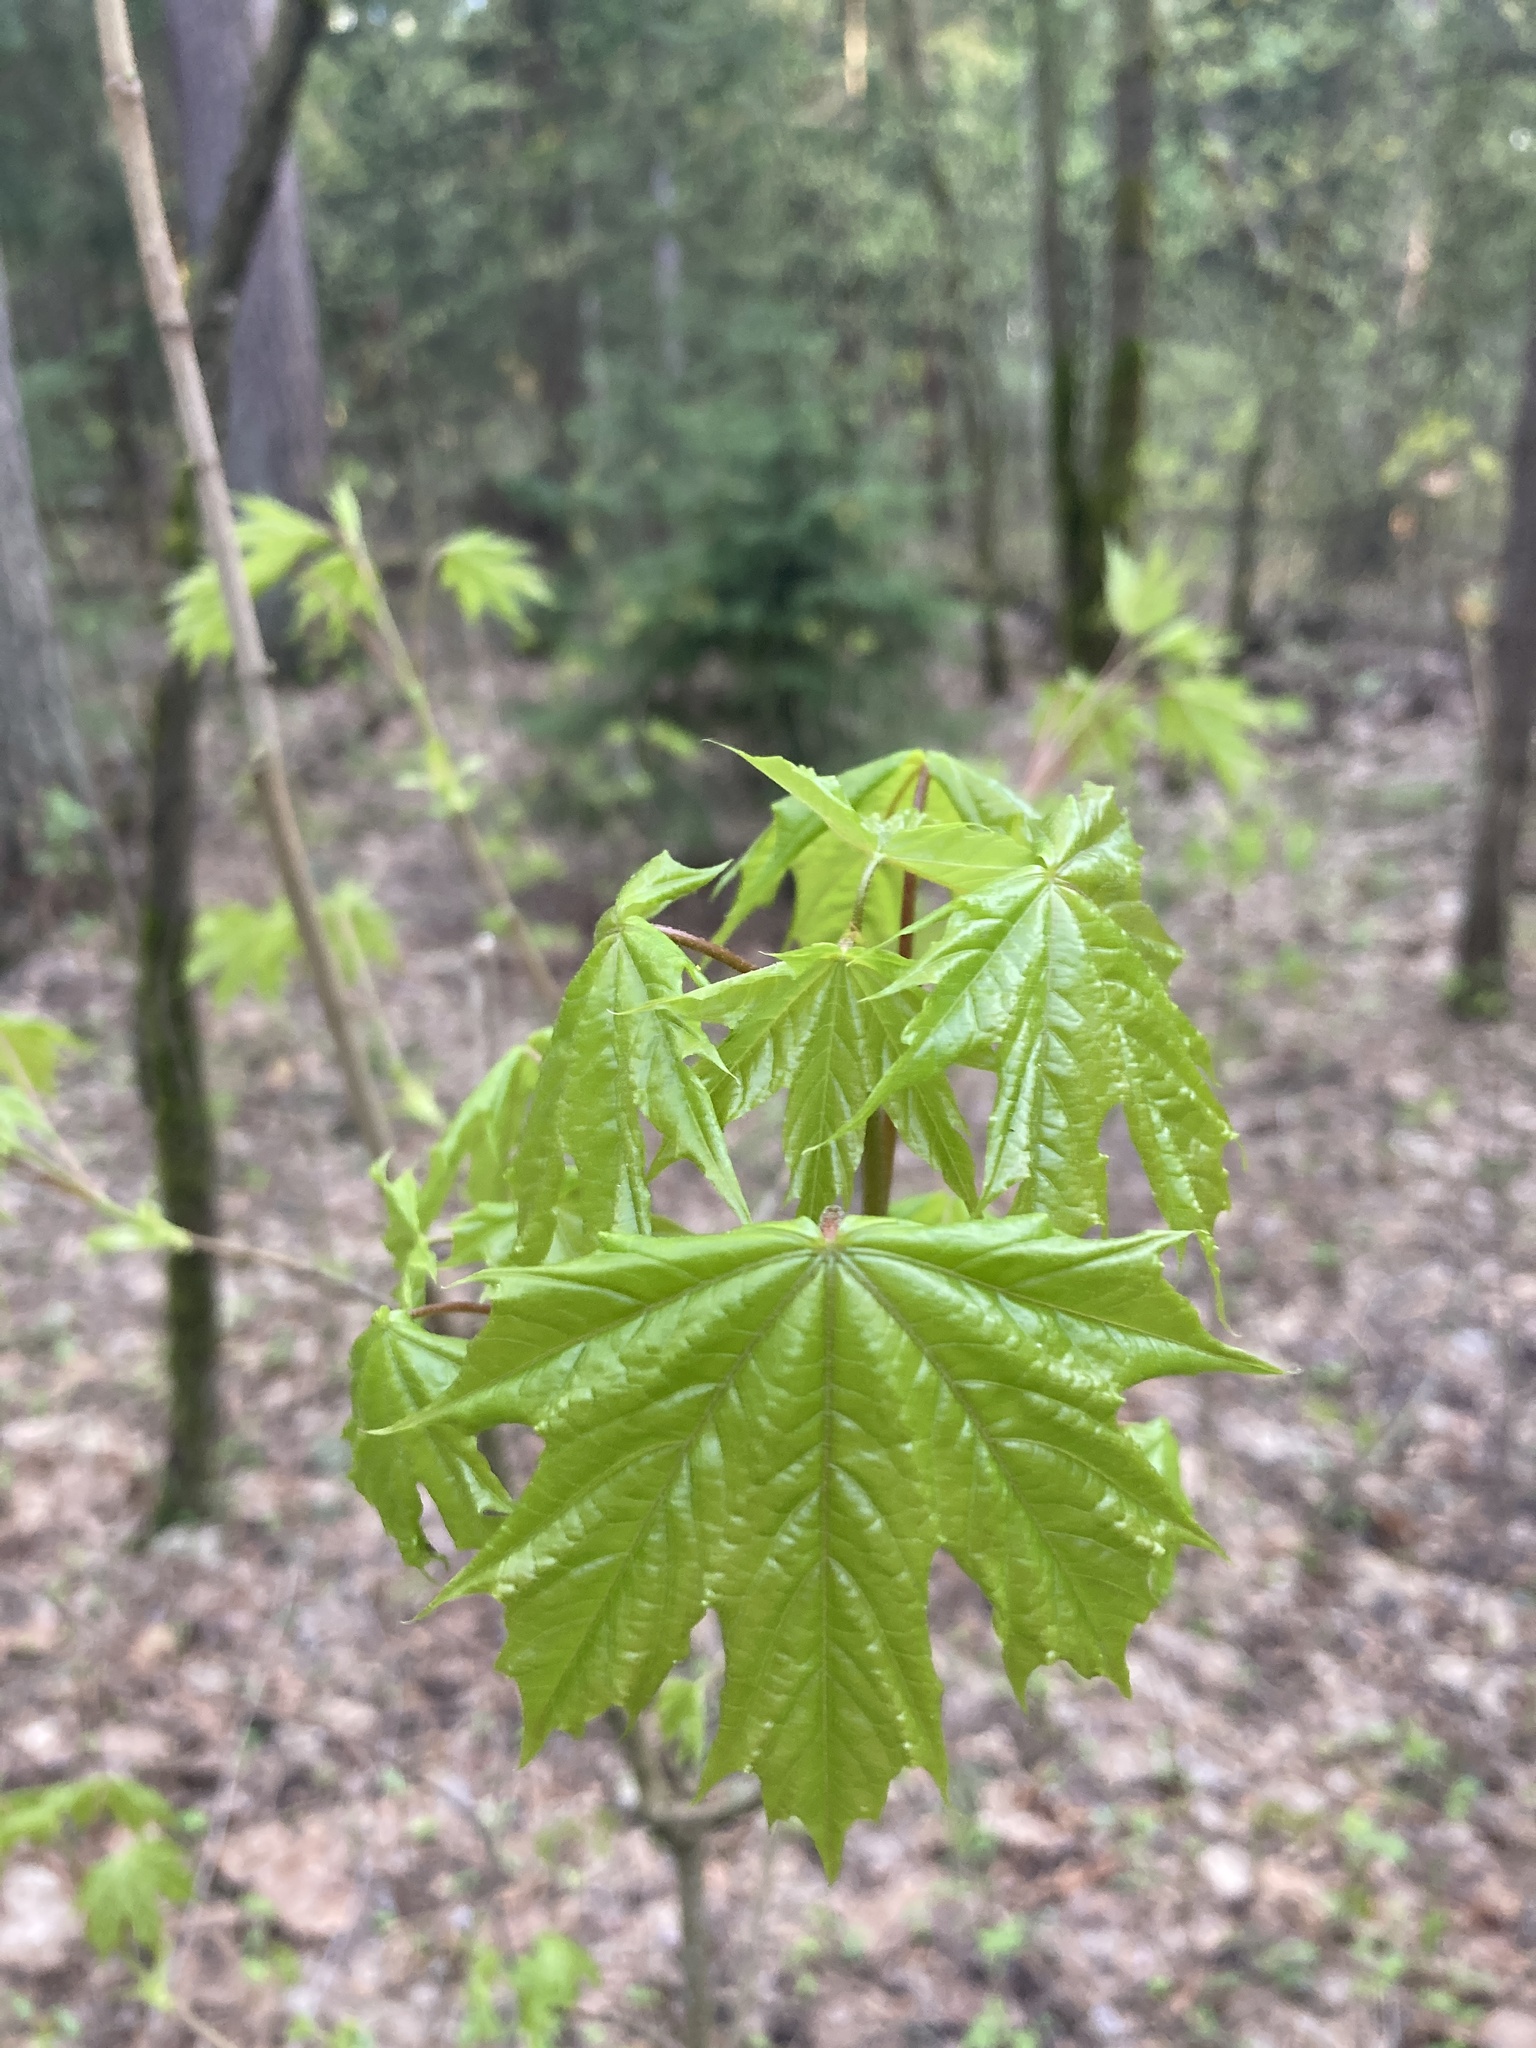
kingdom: Plantae
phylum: Tracheophyta
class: Magnoliopsida
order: Sapindales
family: Sapindaceae
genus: Acer
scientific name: Acer platanoides
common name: Norway maple
